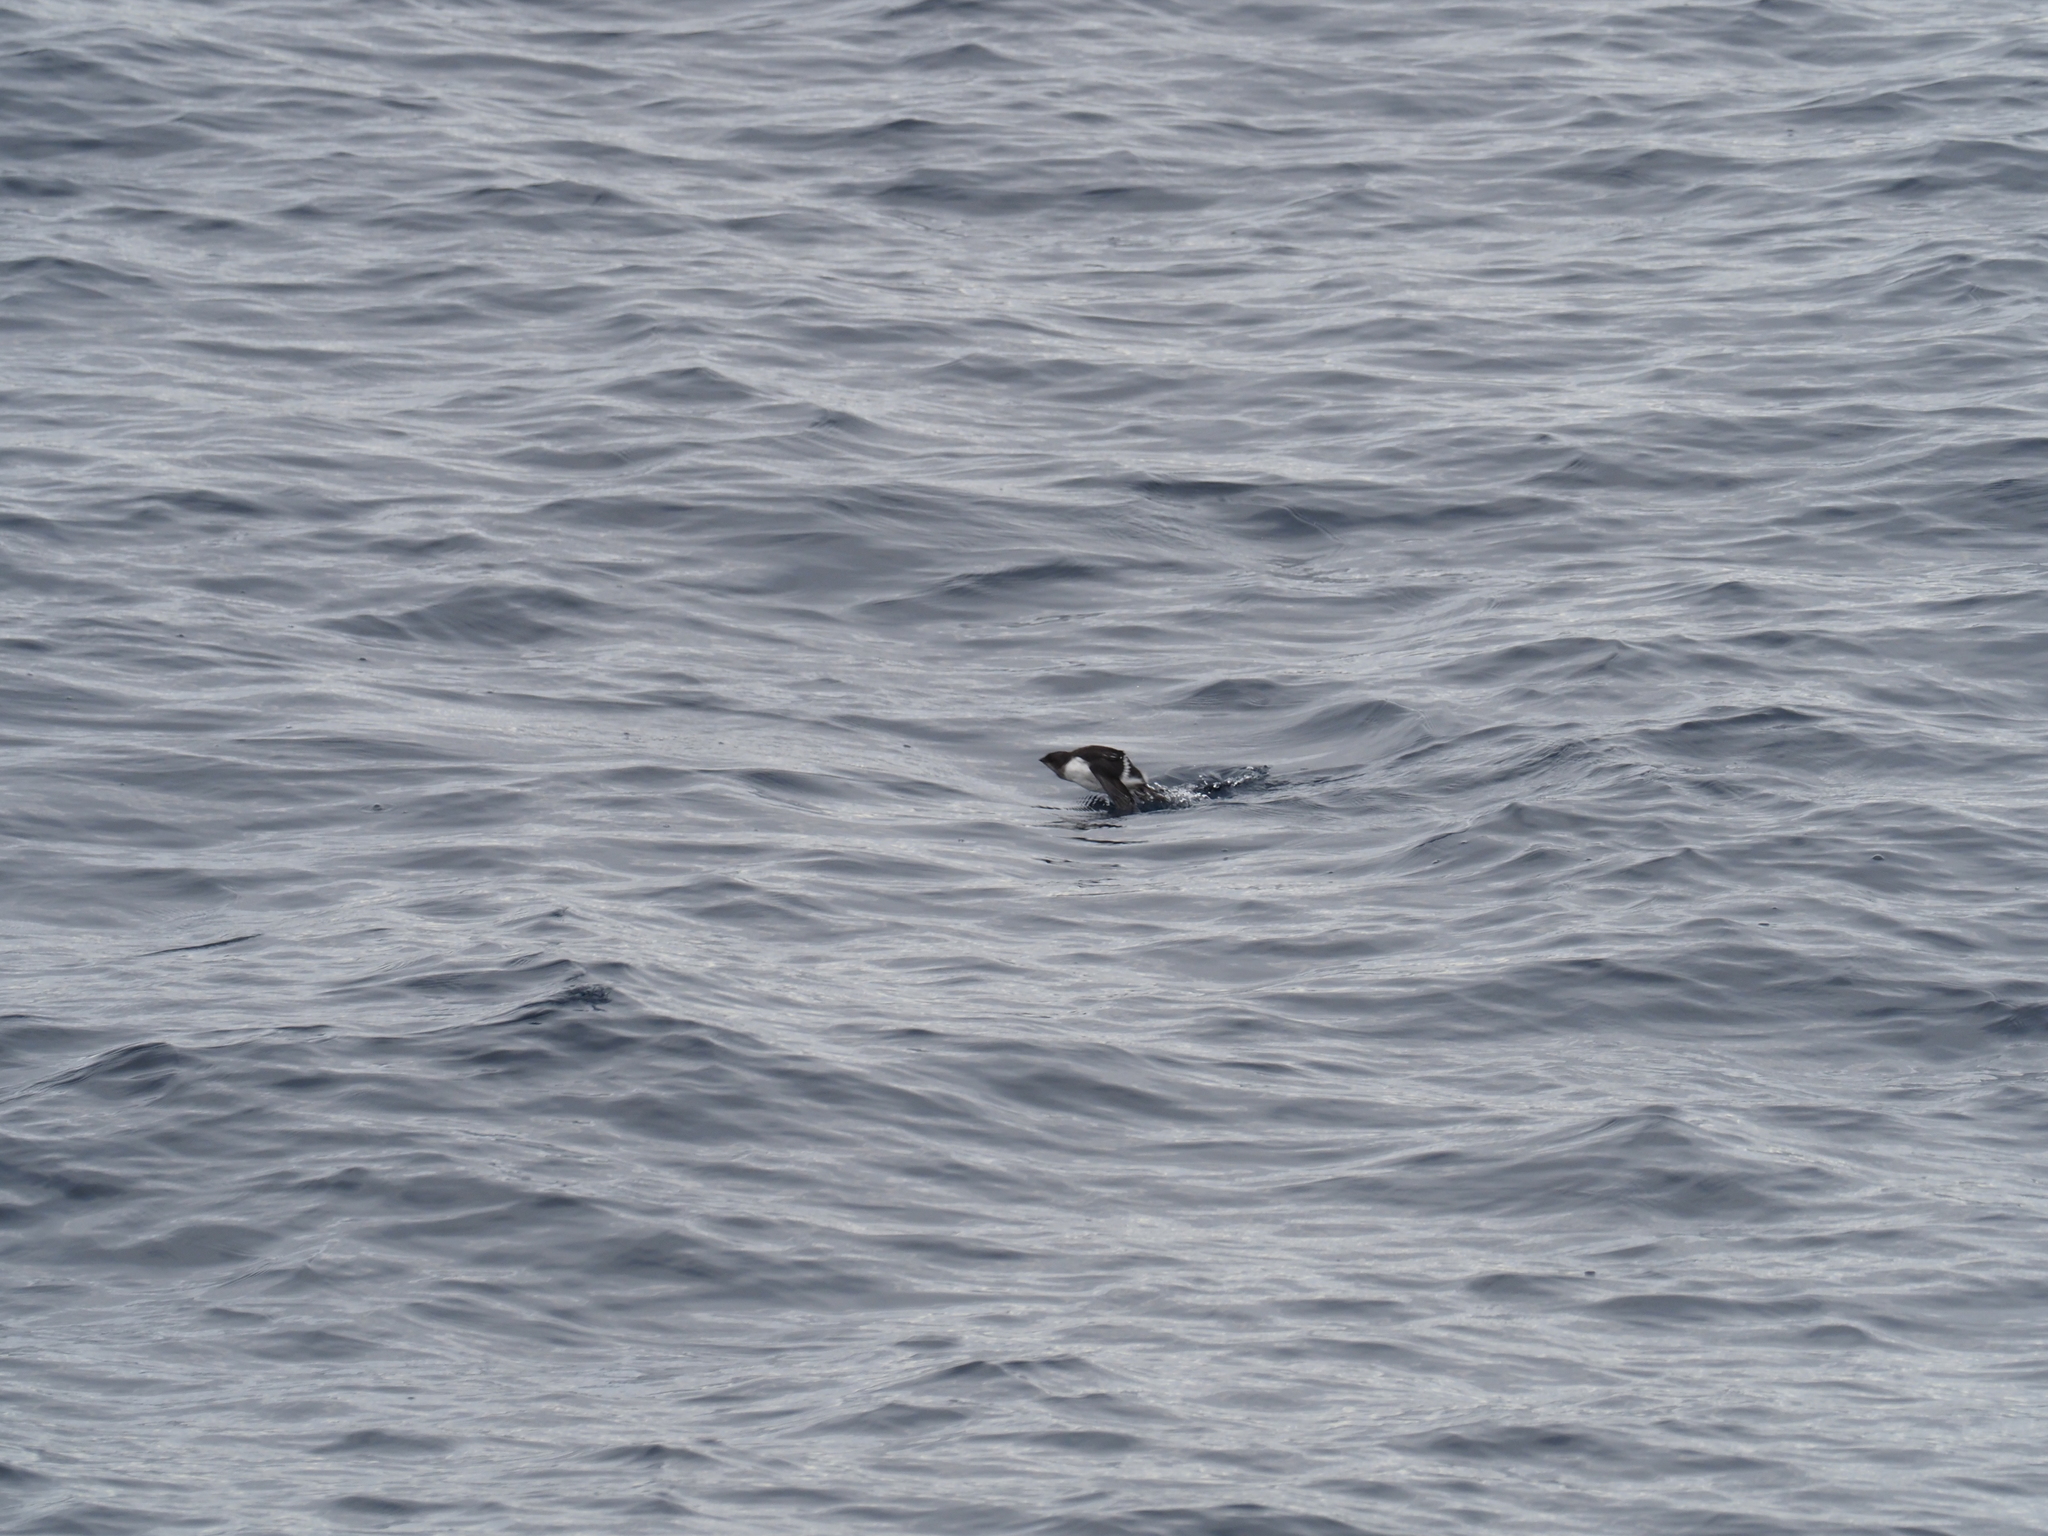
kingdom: Animalia
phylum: Chordata
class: Aves
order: Charadriiformes
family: Alcidae
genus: Alle
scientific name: Alle alle
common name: Little auk
